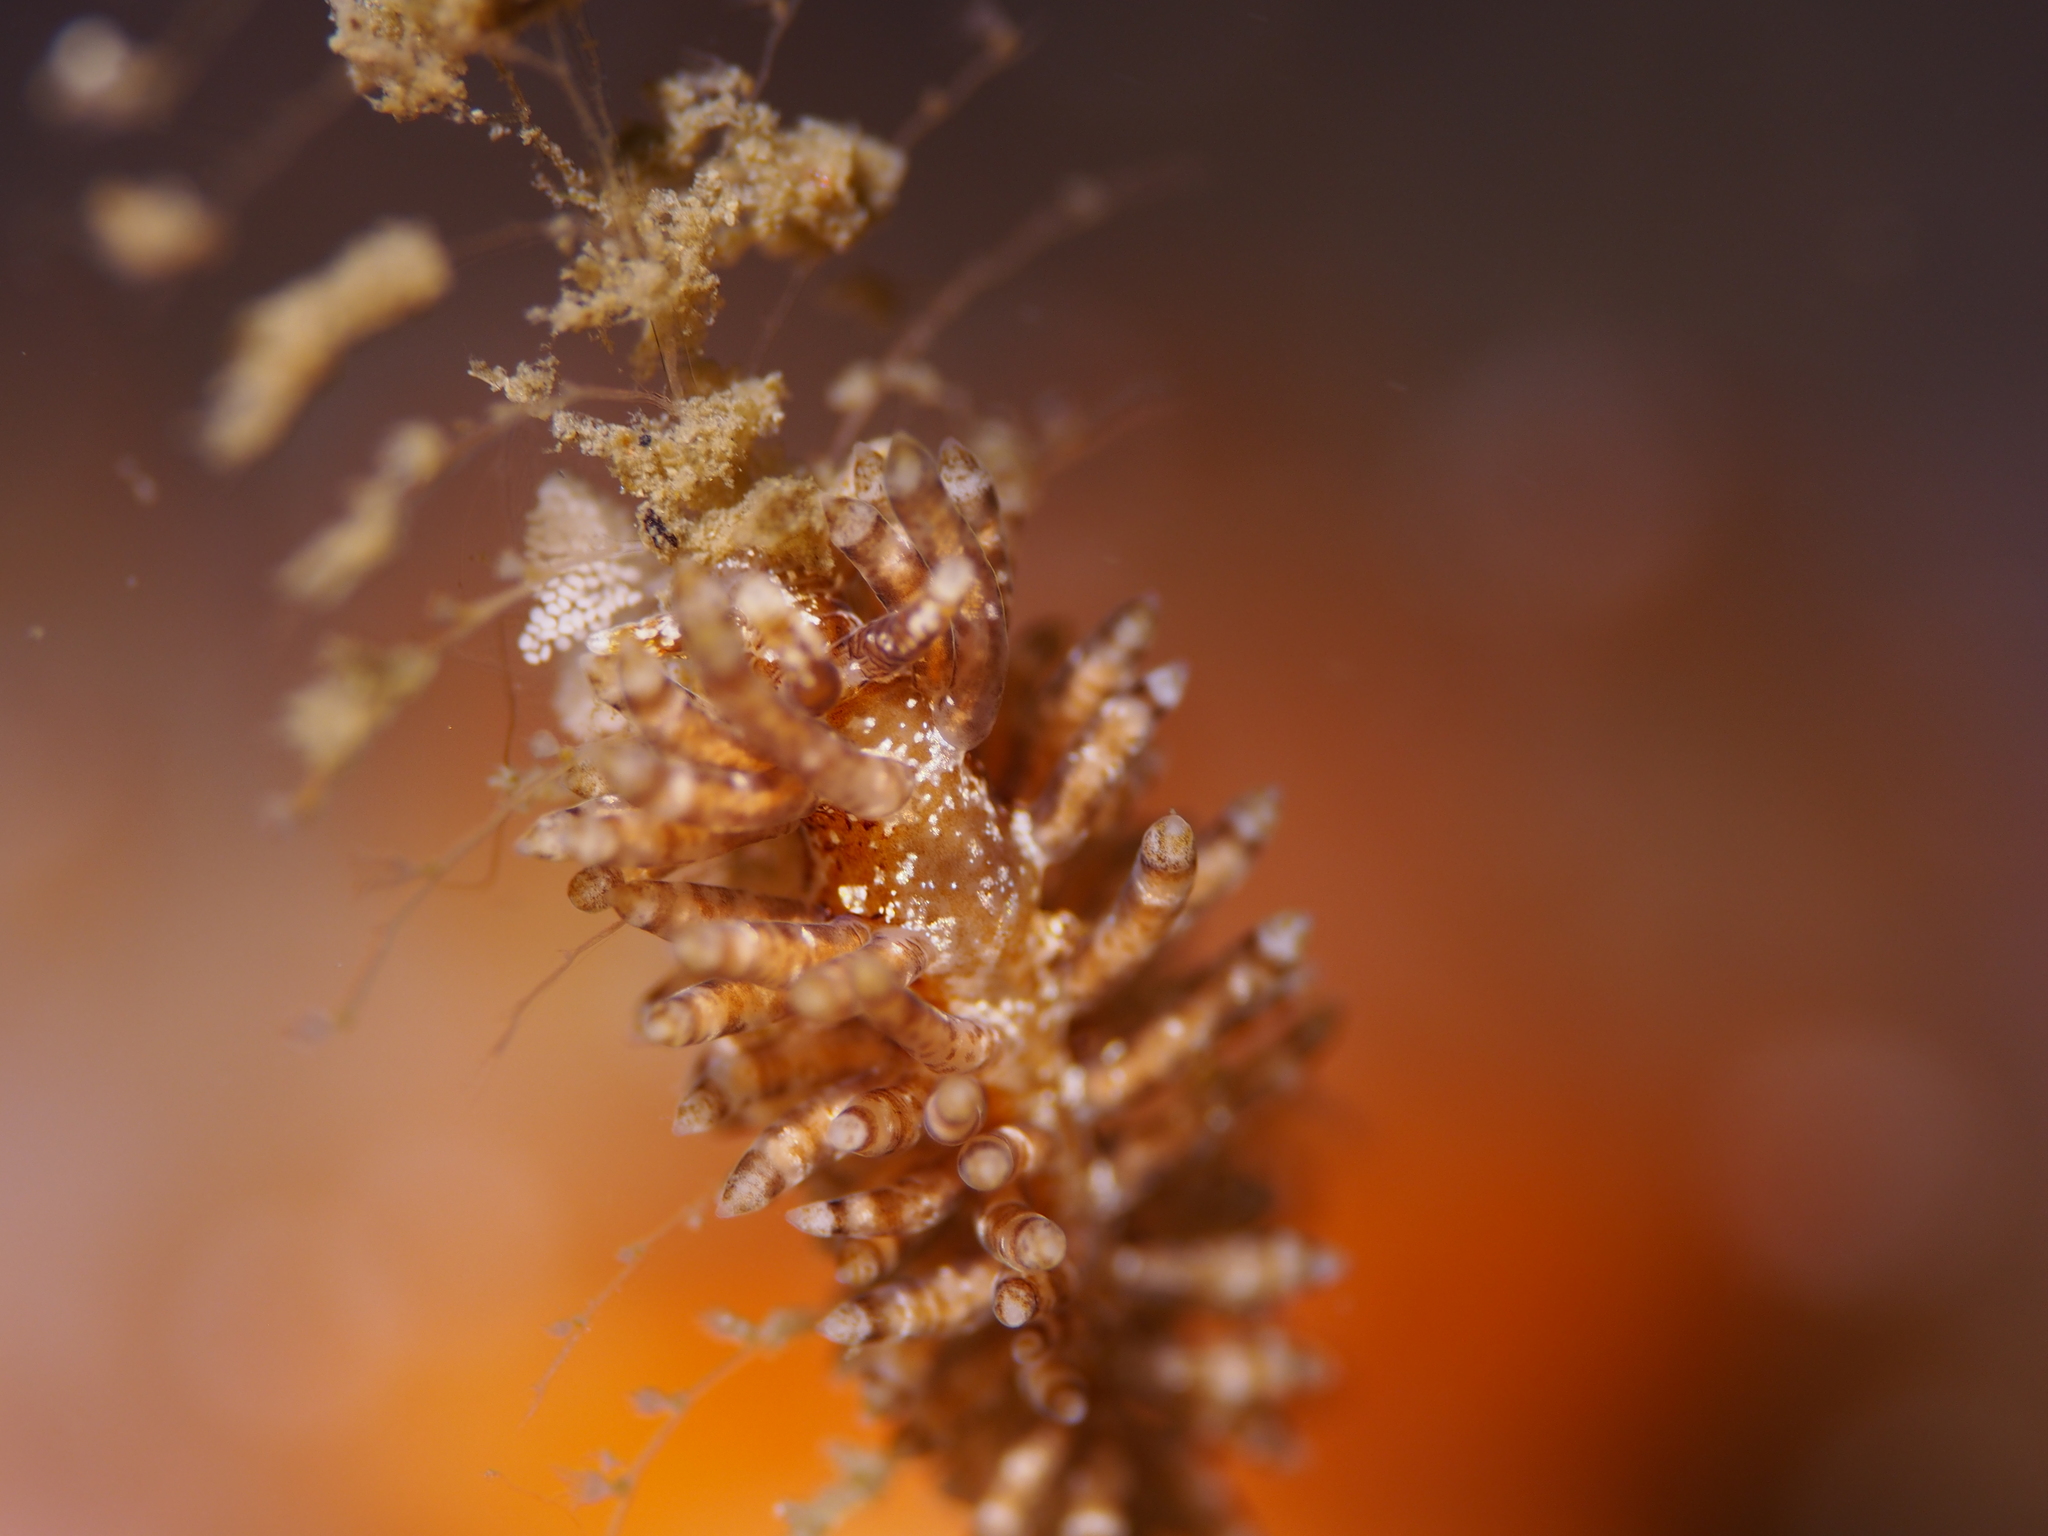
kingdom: Animalia
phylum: Mollusca
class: Gastropoda
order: Nudibranchia
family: Eubranchidae
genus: Eubranchus
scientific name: Eubranchus vittatus
